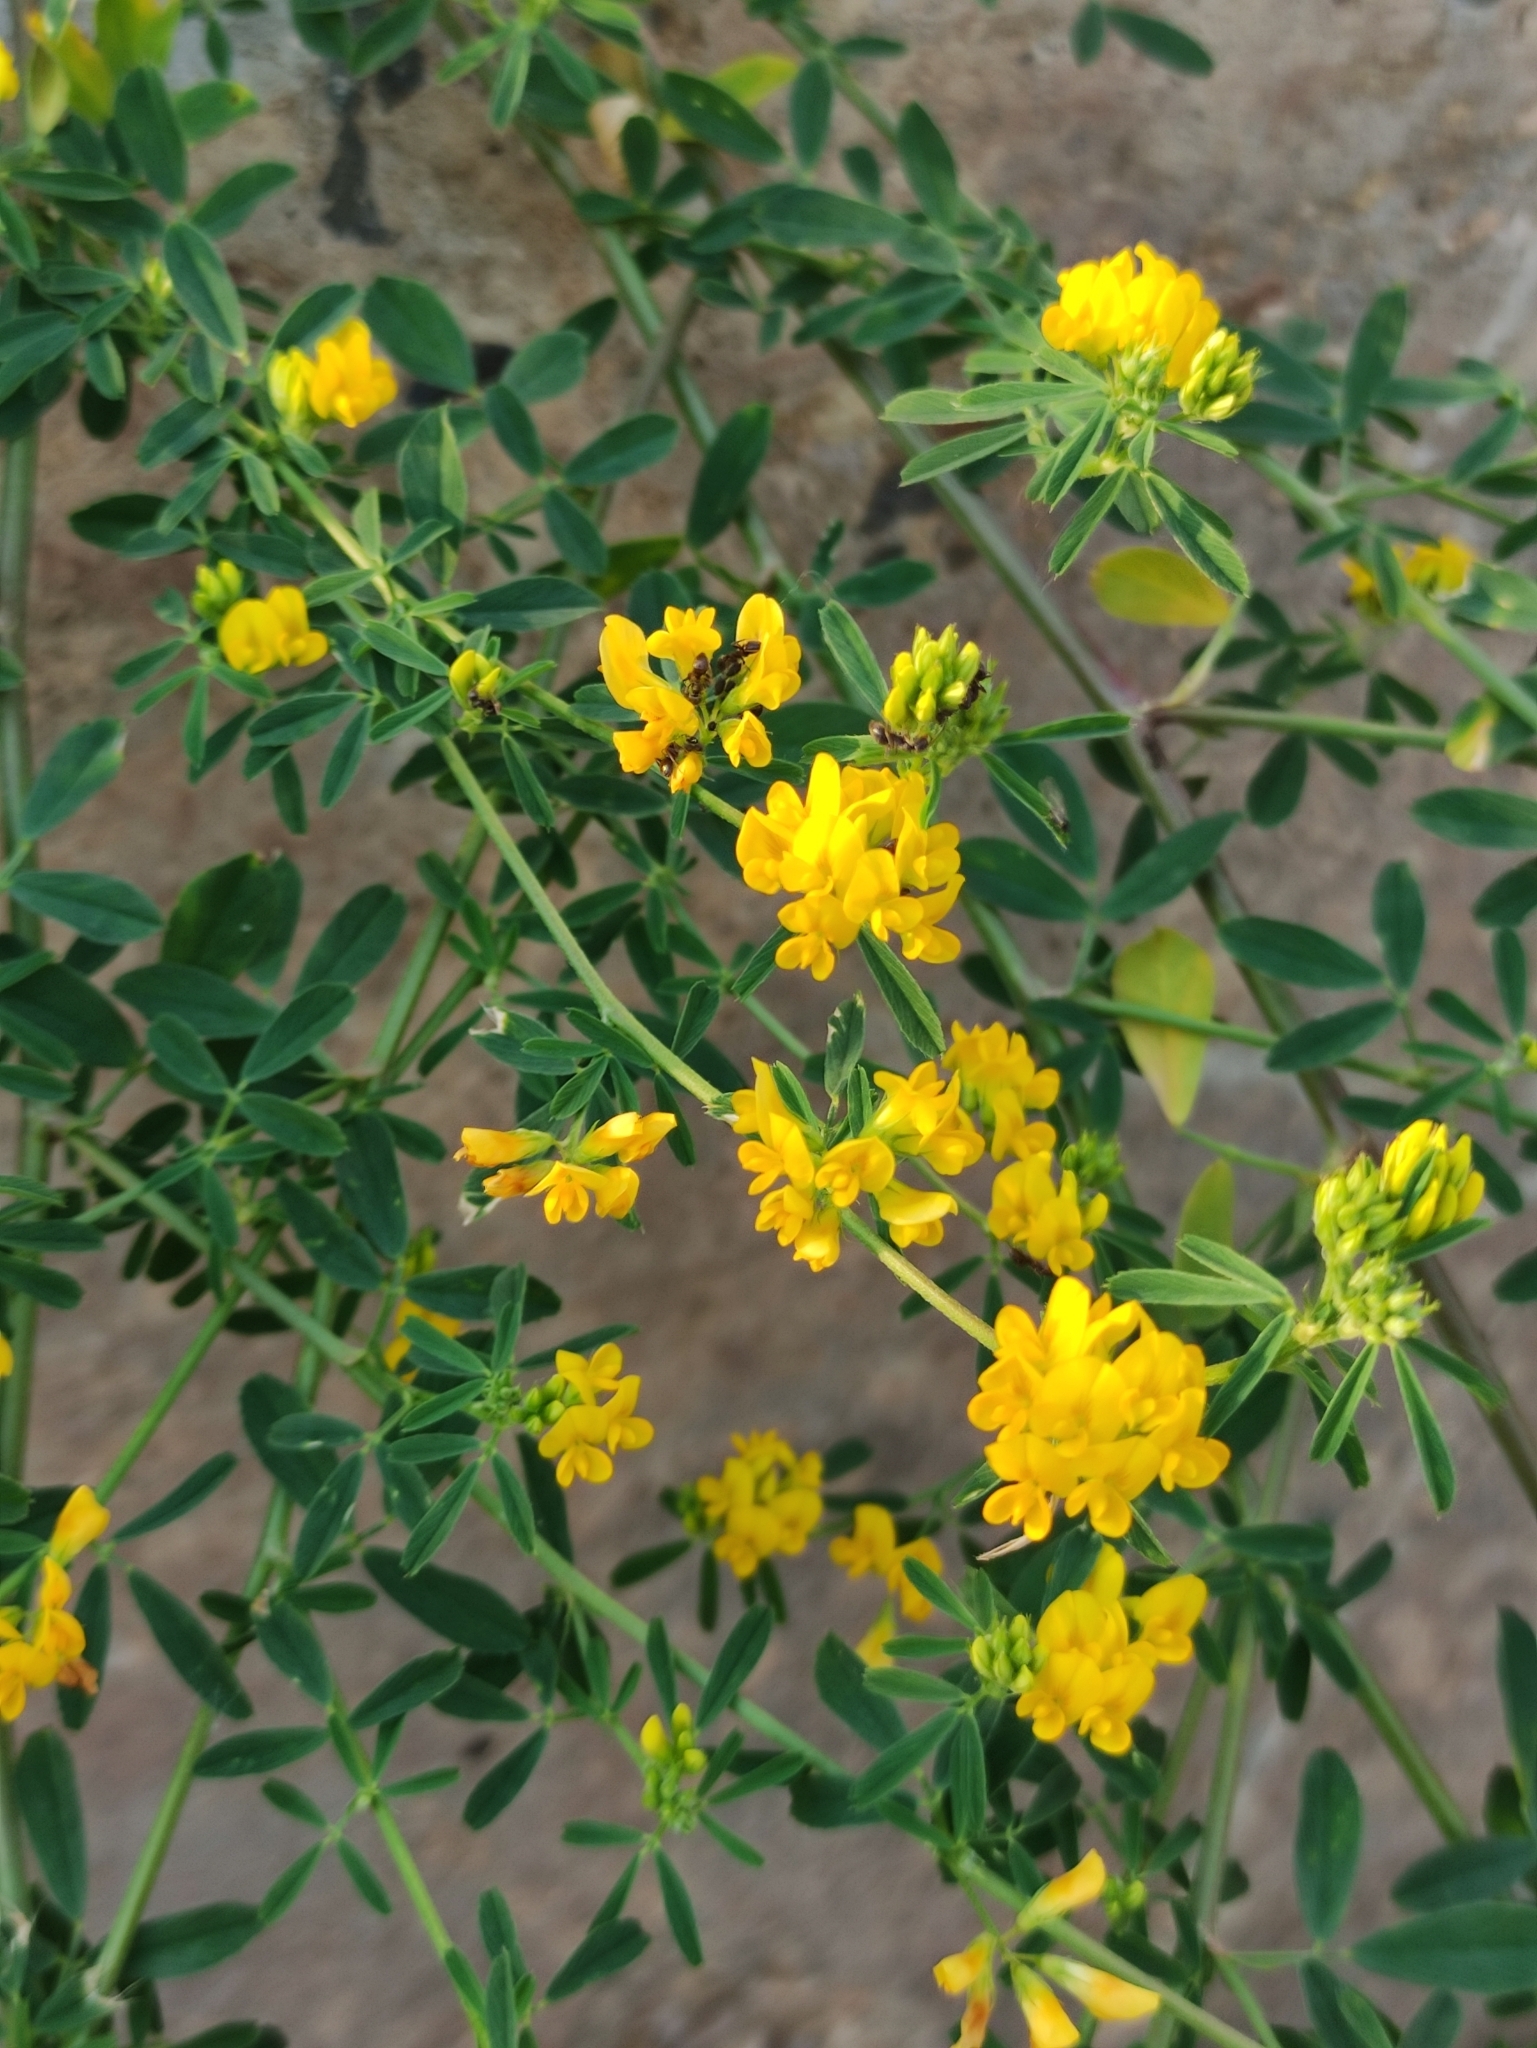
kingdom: Plantae
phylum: Tracheophyta
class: Magnoliopsida
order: Fabales
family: Fabaceae
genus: Medicago
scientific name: Medicago falcata
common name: Sickle medick
